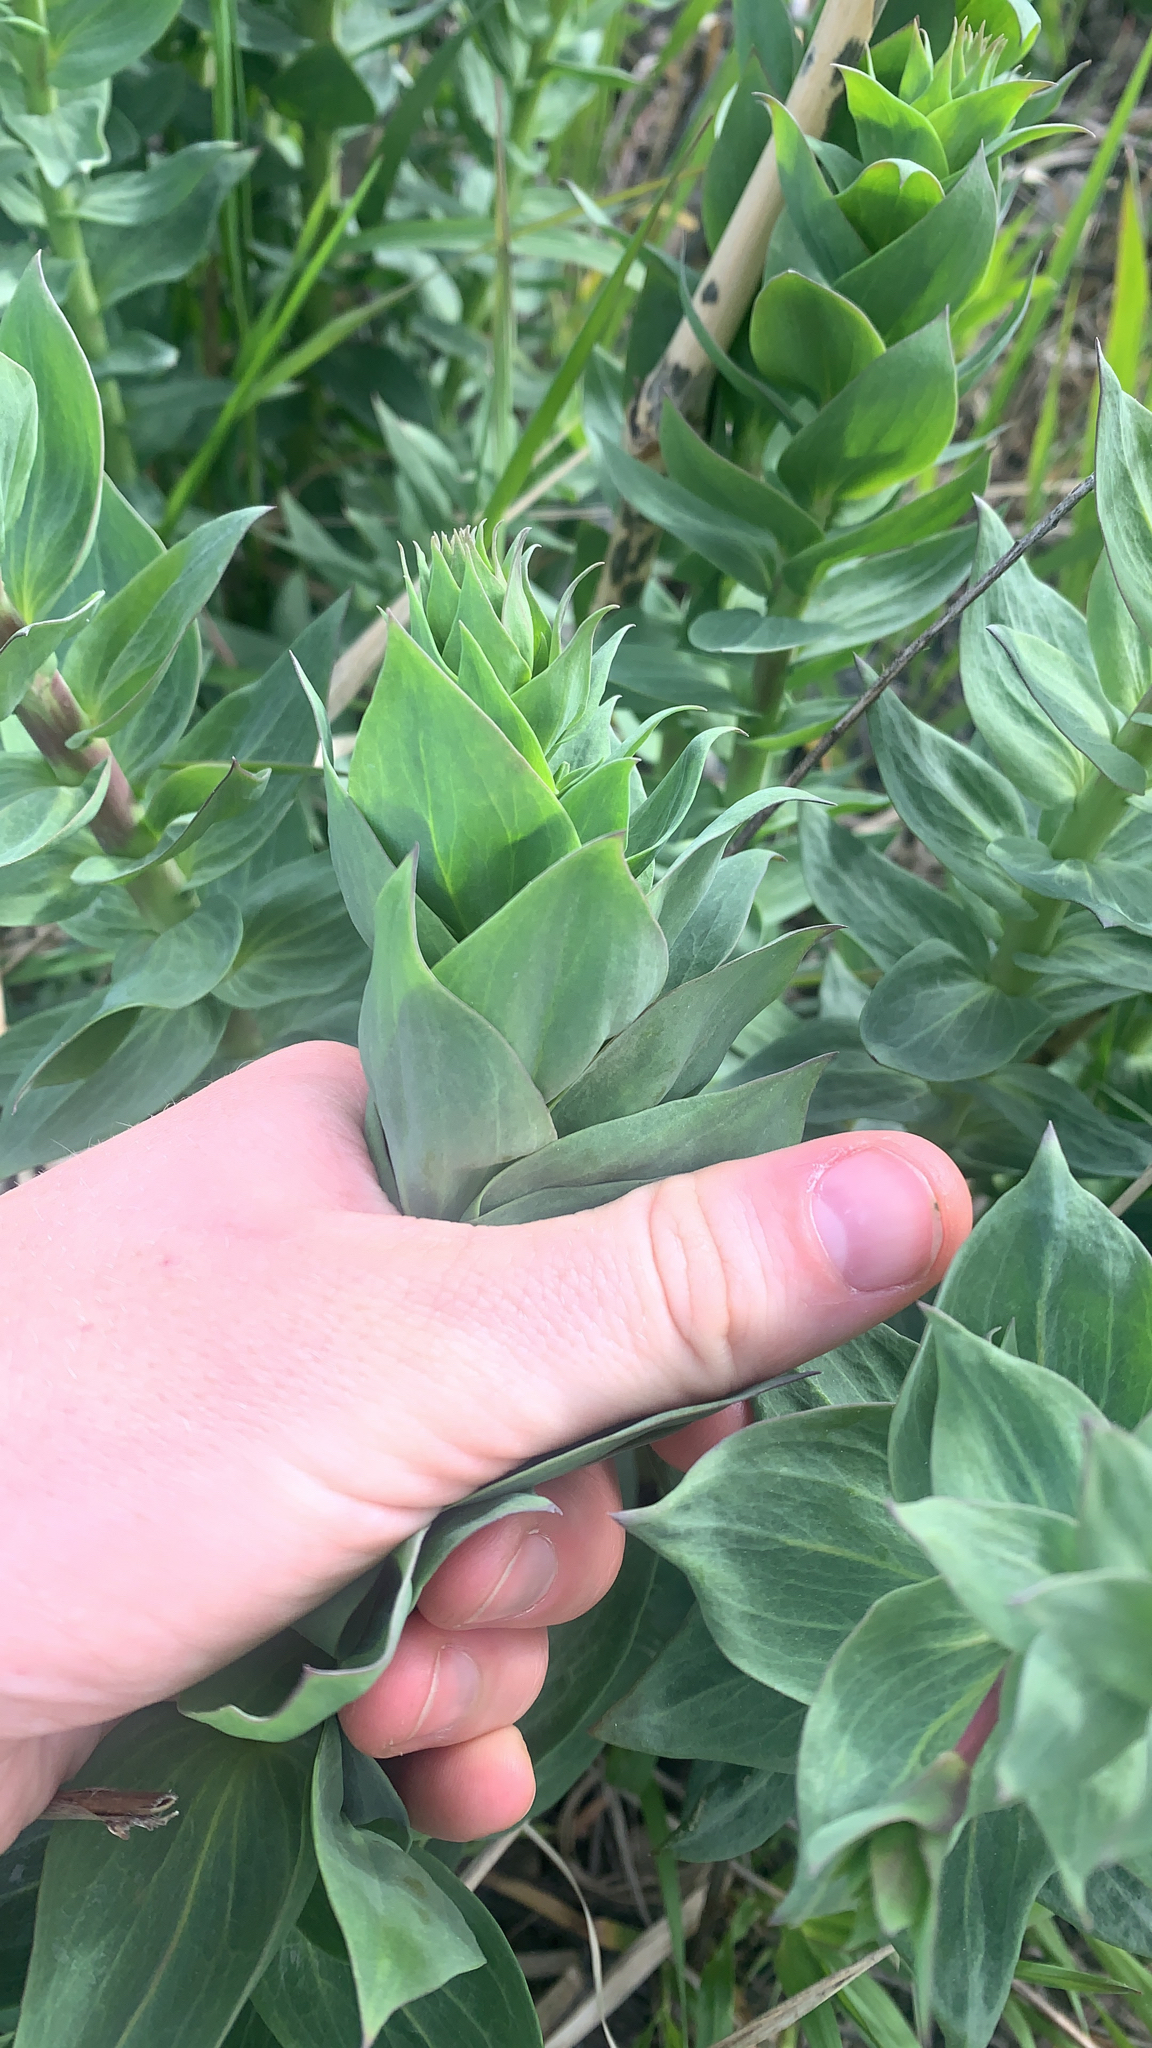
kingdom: Plantae
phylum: Tracheophyta
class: Magnoliopsida
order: Lamiales
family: Plantaginaceae
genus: Linaria
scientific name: Linaria dalmatica
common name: Dalmatian toadflax
